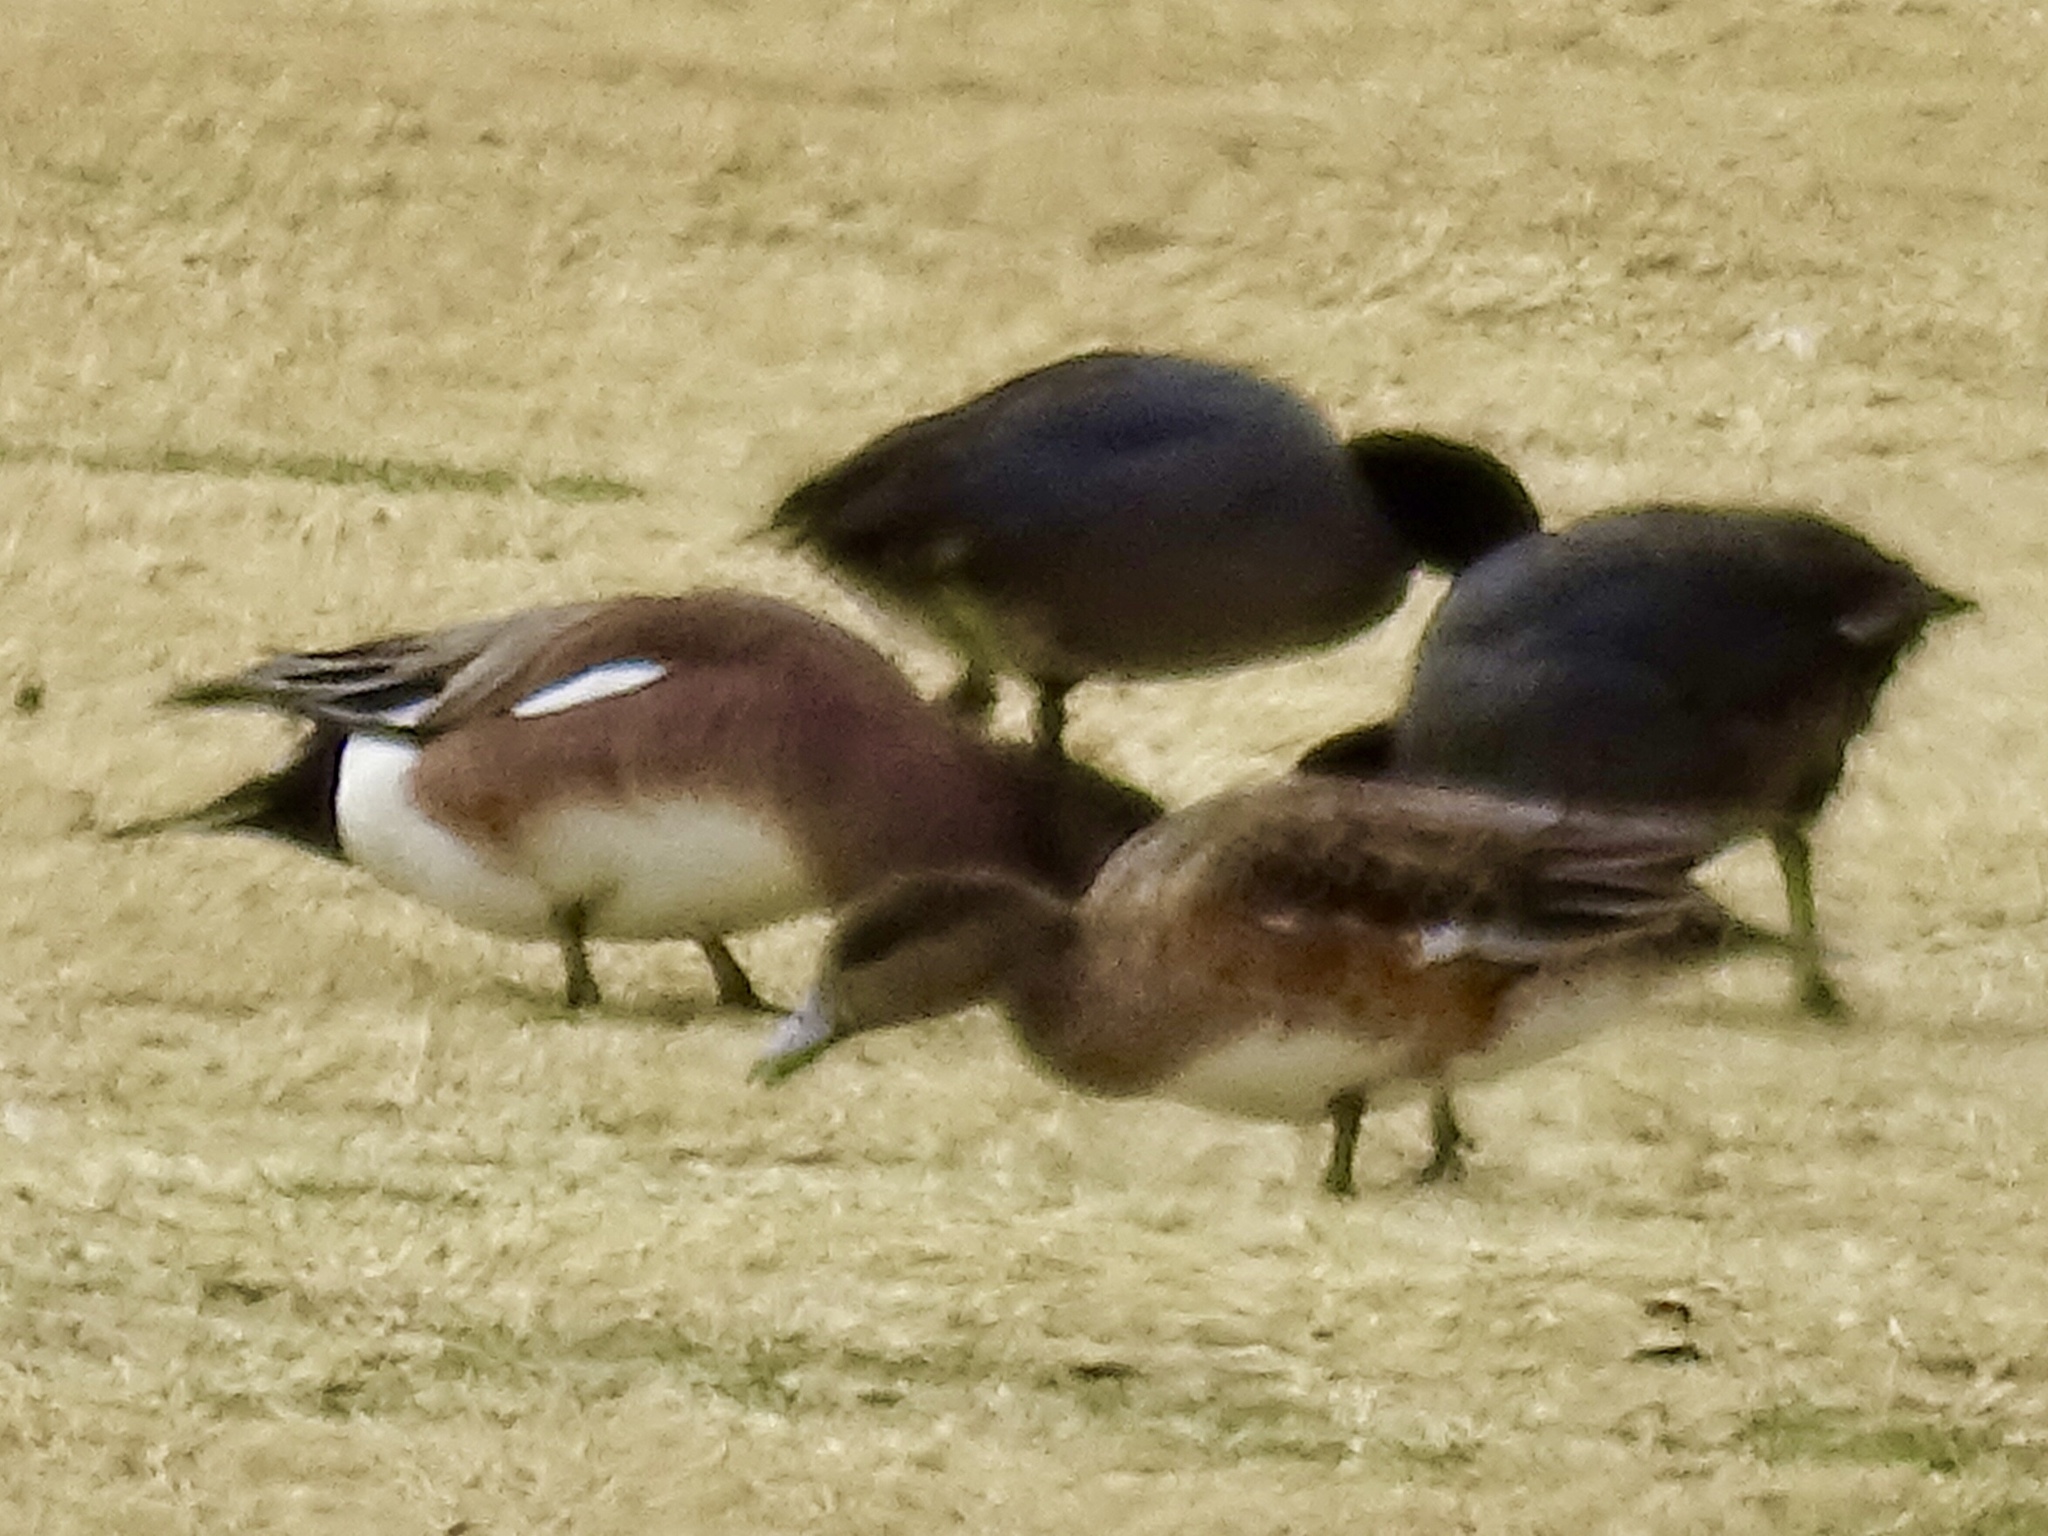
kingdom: Animalia
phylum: Chordata
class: Aves
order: Anseriformes
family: Anatidae
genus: Mareca
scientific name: Mareca americana
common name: American wigeon
